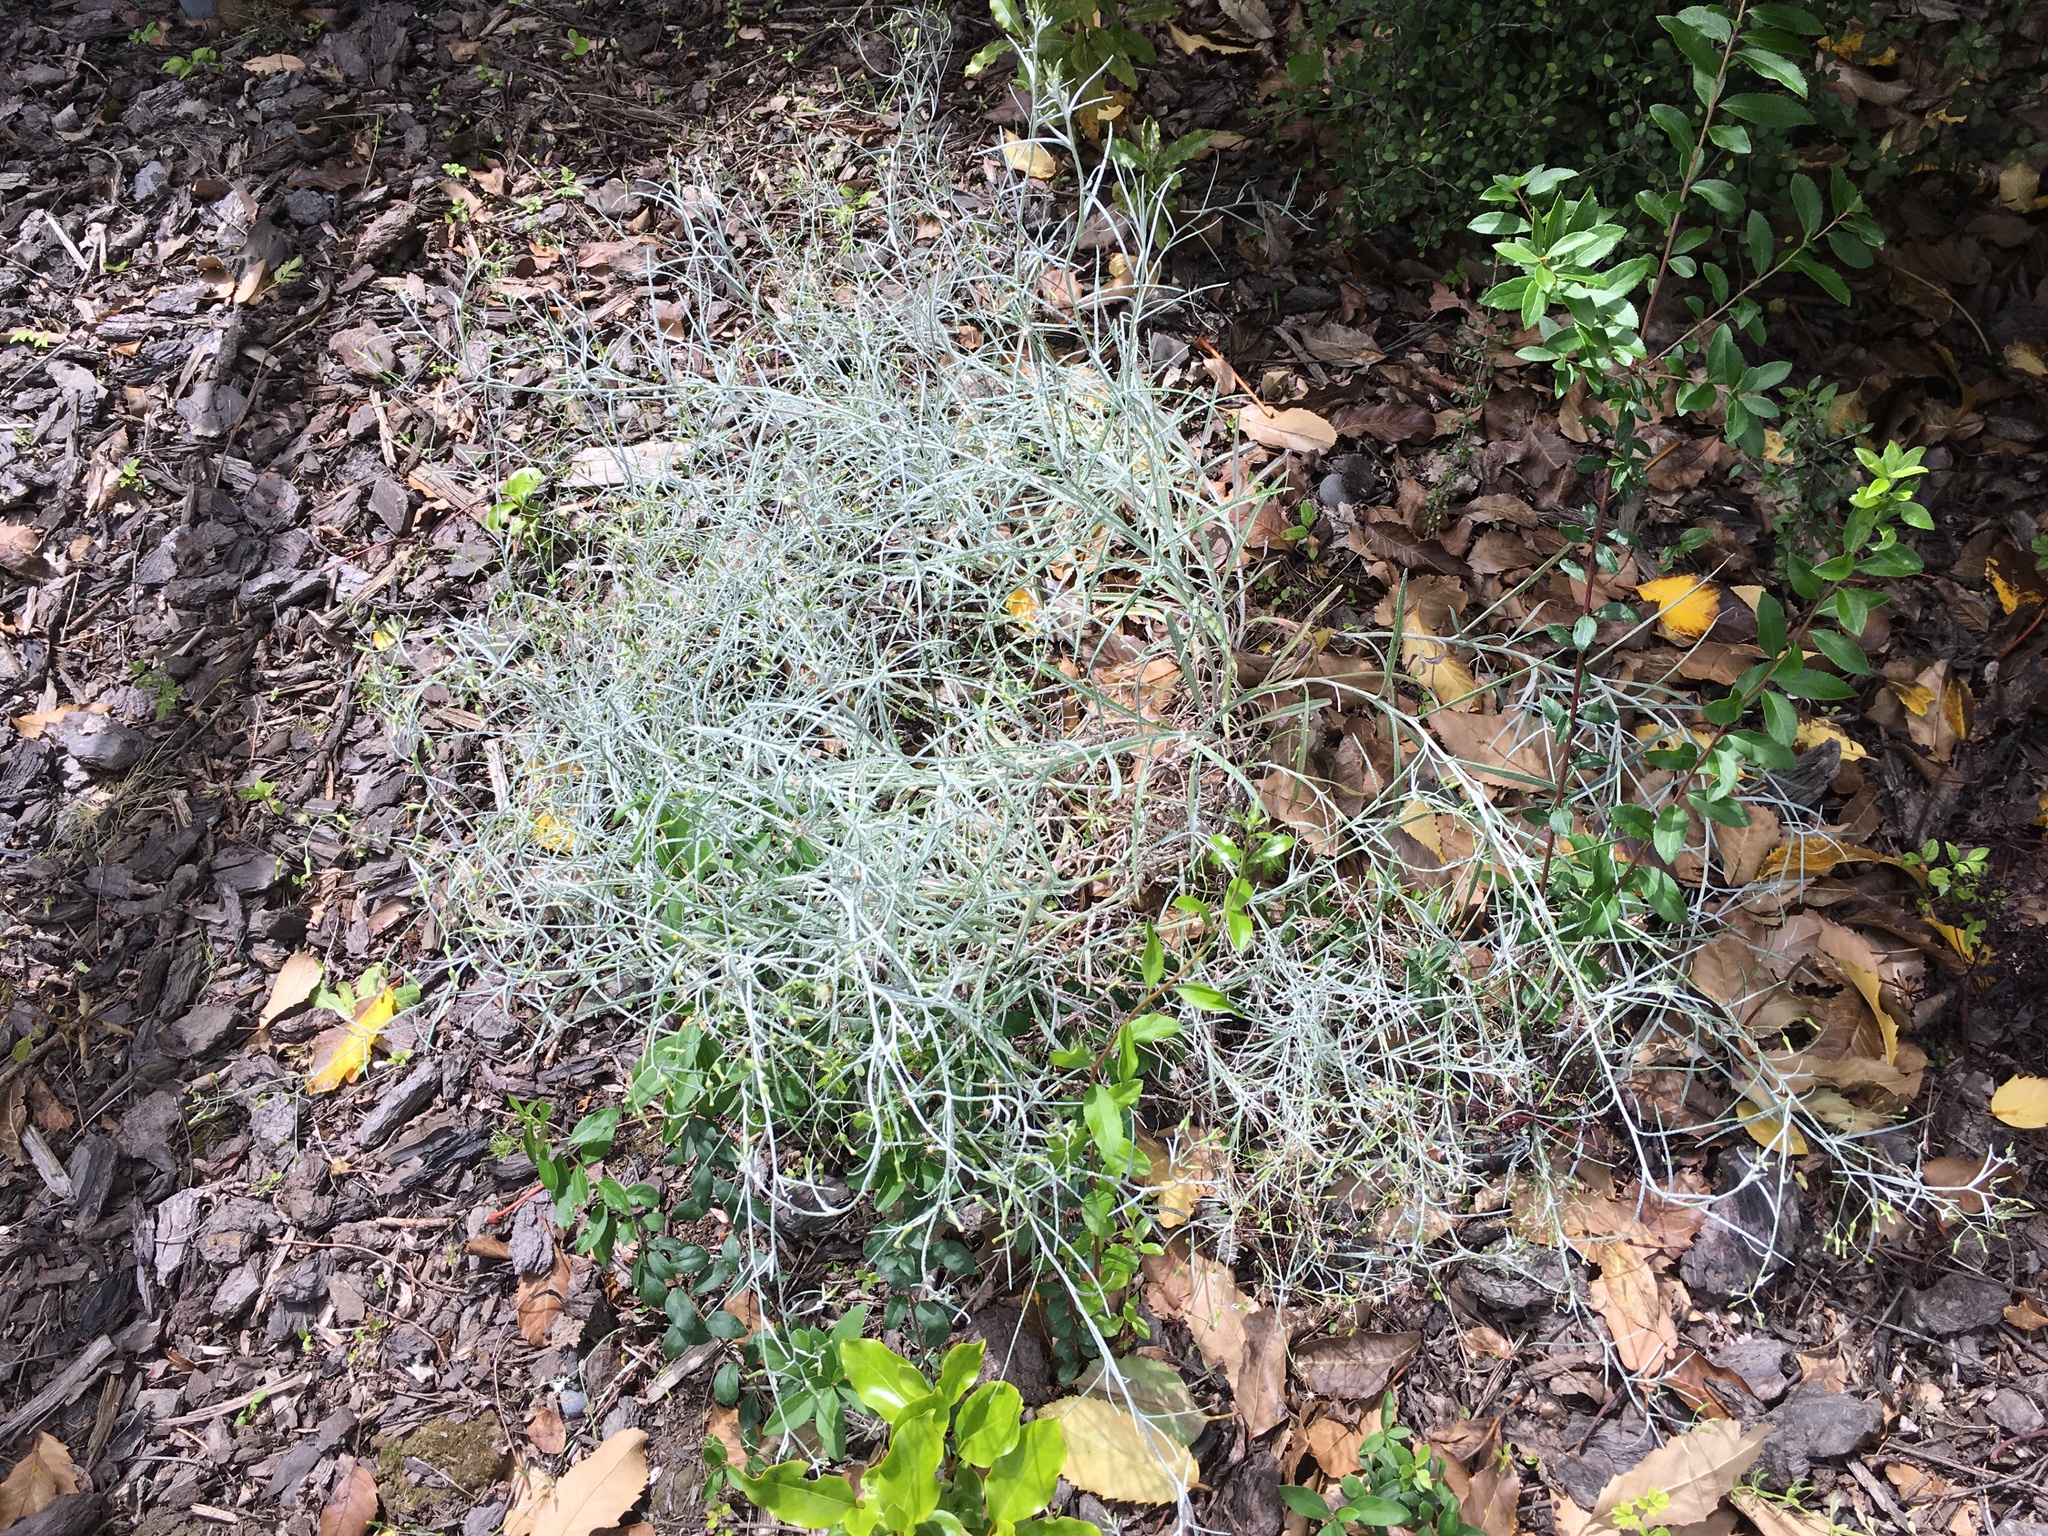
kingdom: Plantae
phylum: Tracheophyta
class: Magnoliopsida
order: Asterales
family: Asteraceae
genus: Senecio
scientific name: Senecio quadridentatus
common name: Cotton fireweed
